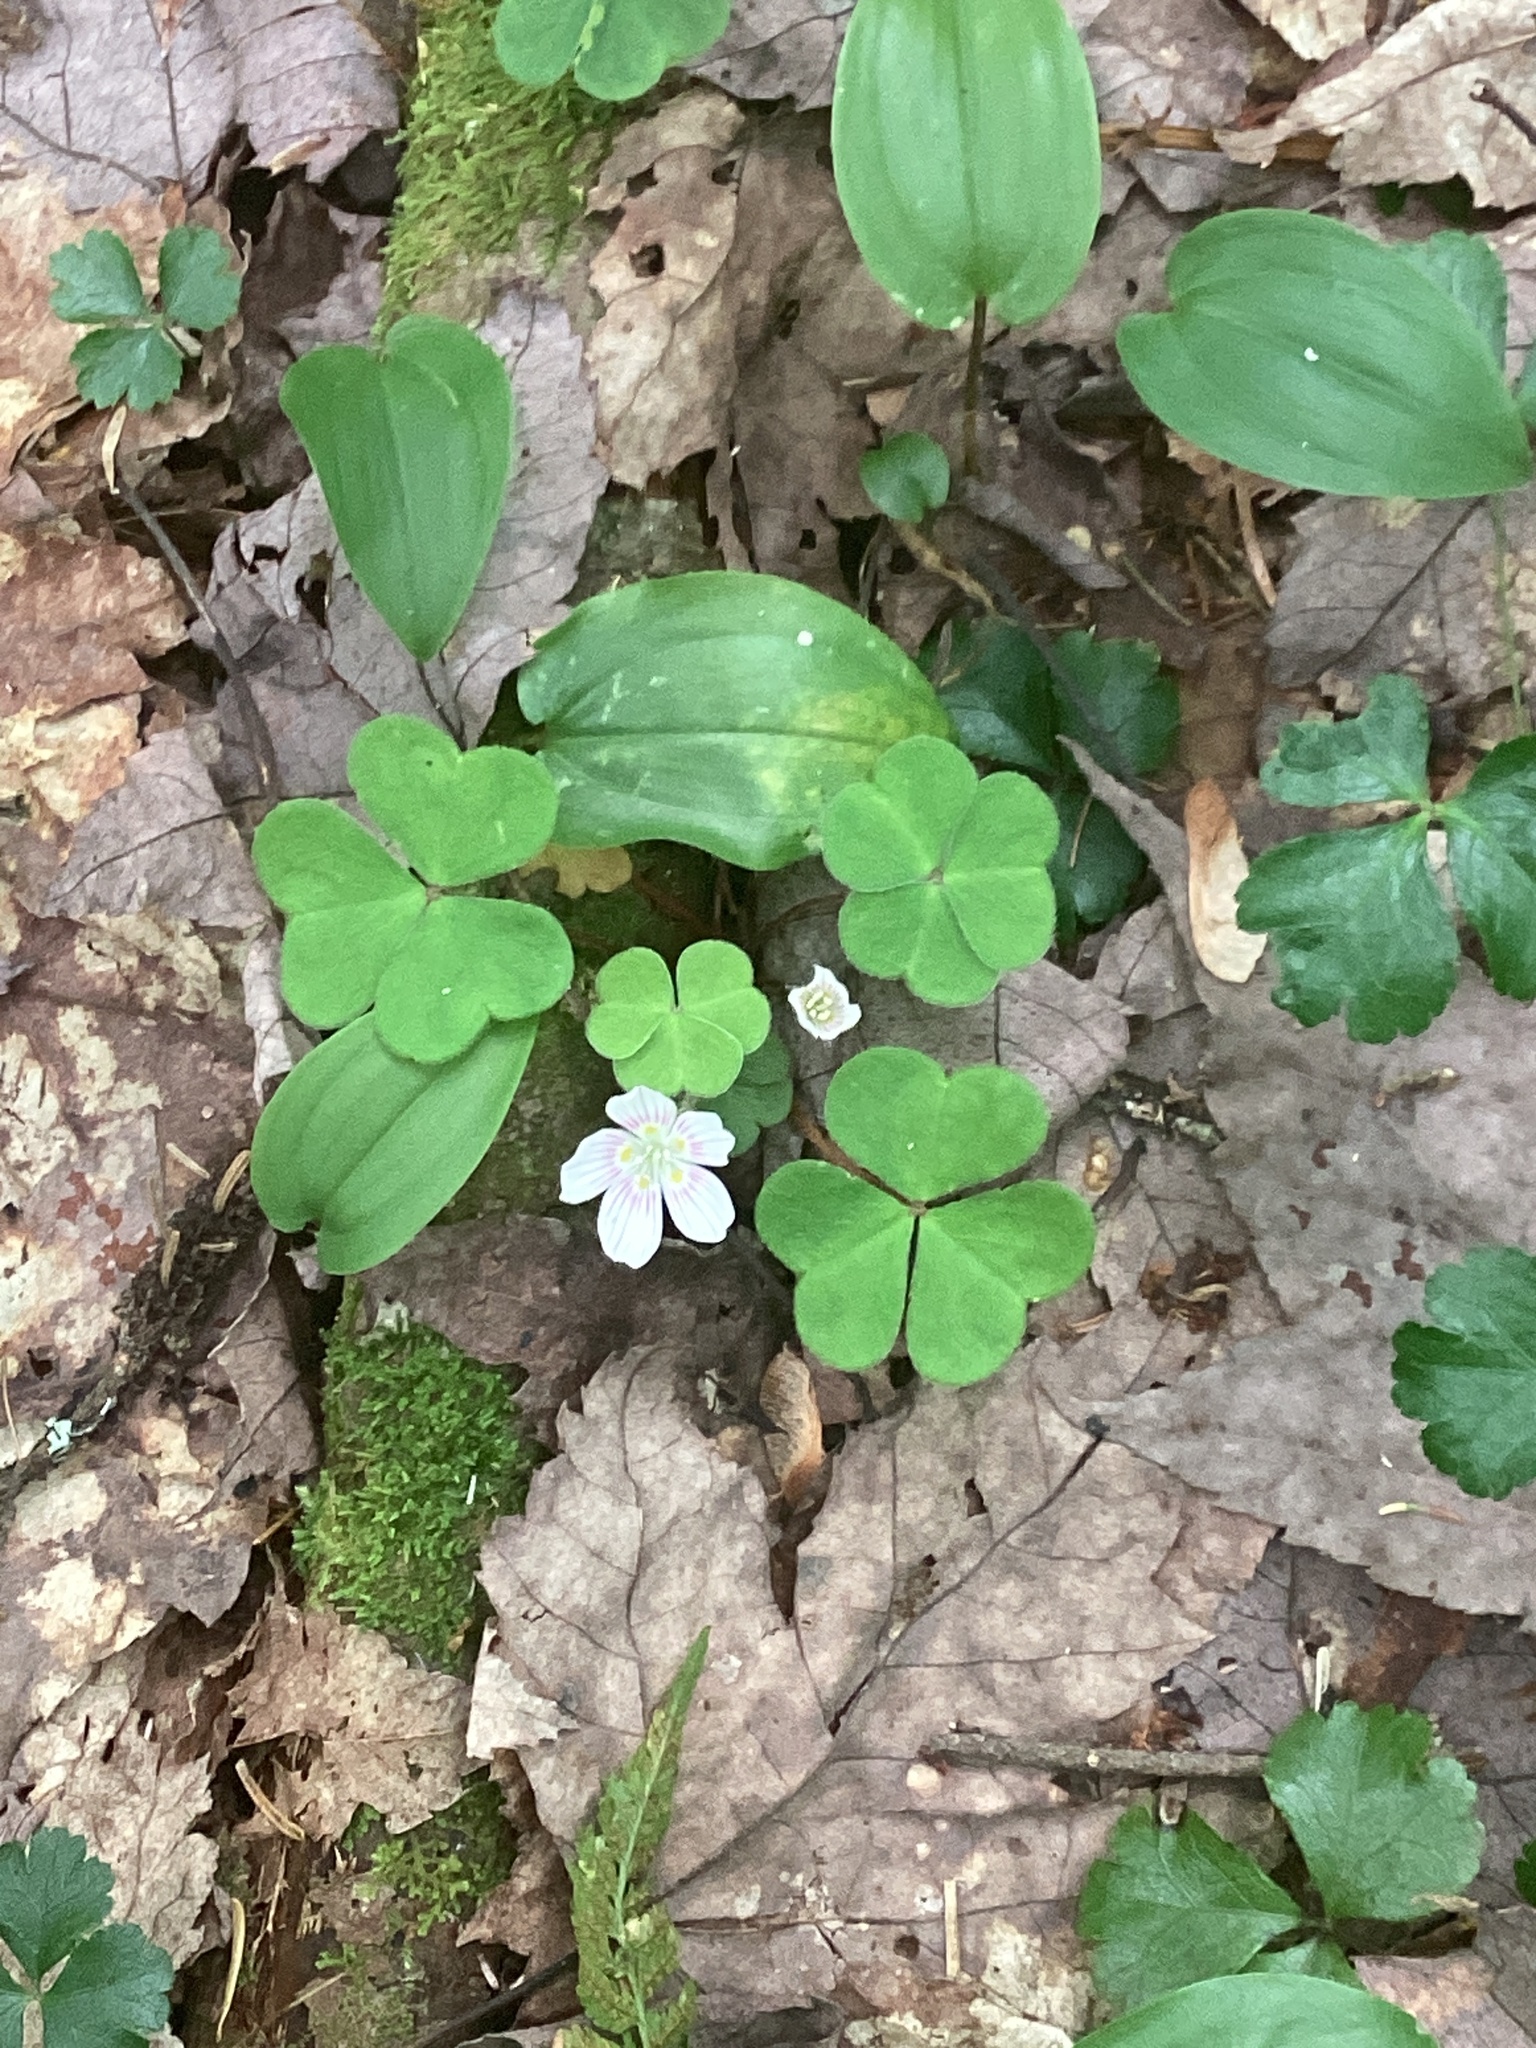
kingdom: Plantae
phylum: Tracheophyta
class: Magnoliopsida
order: Oxalidales
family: Oxalidaceae
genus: Oxalis
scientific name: Oxalis montana
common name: American wood-sorrel
